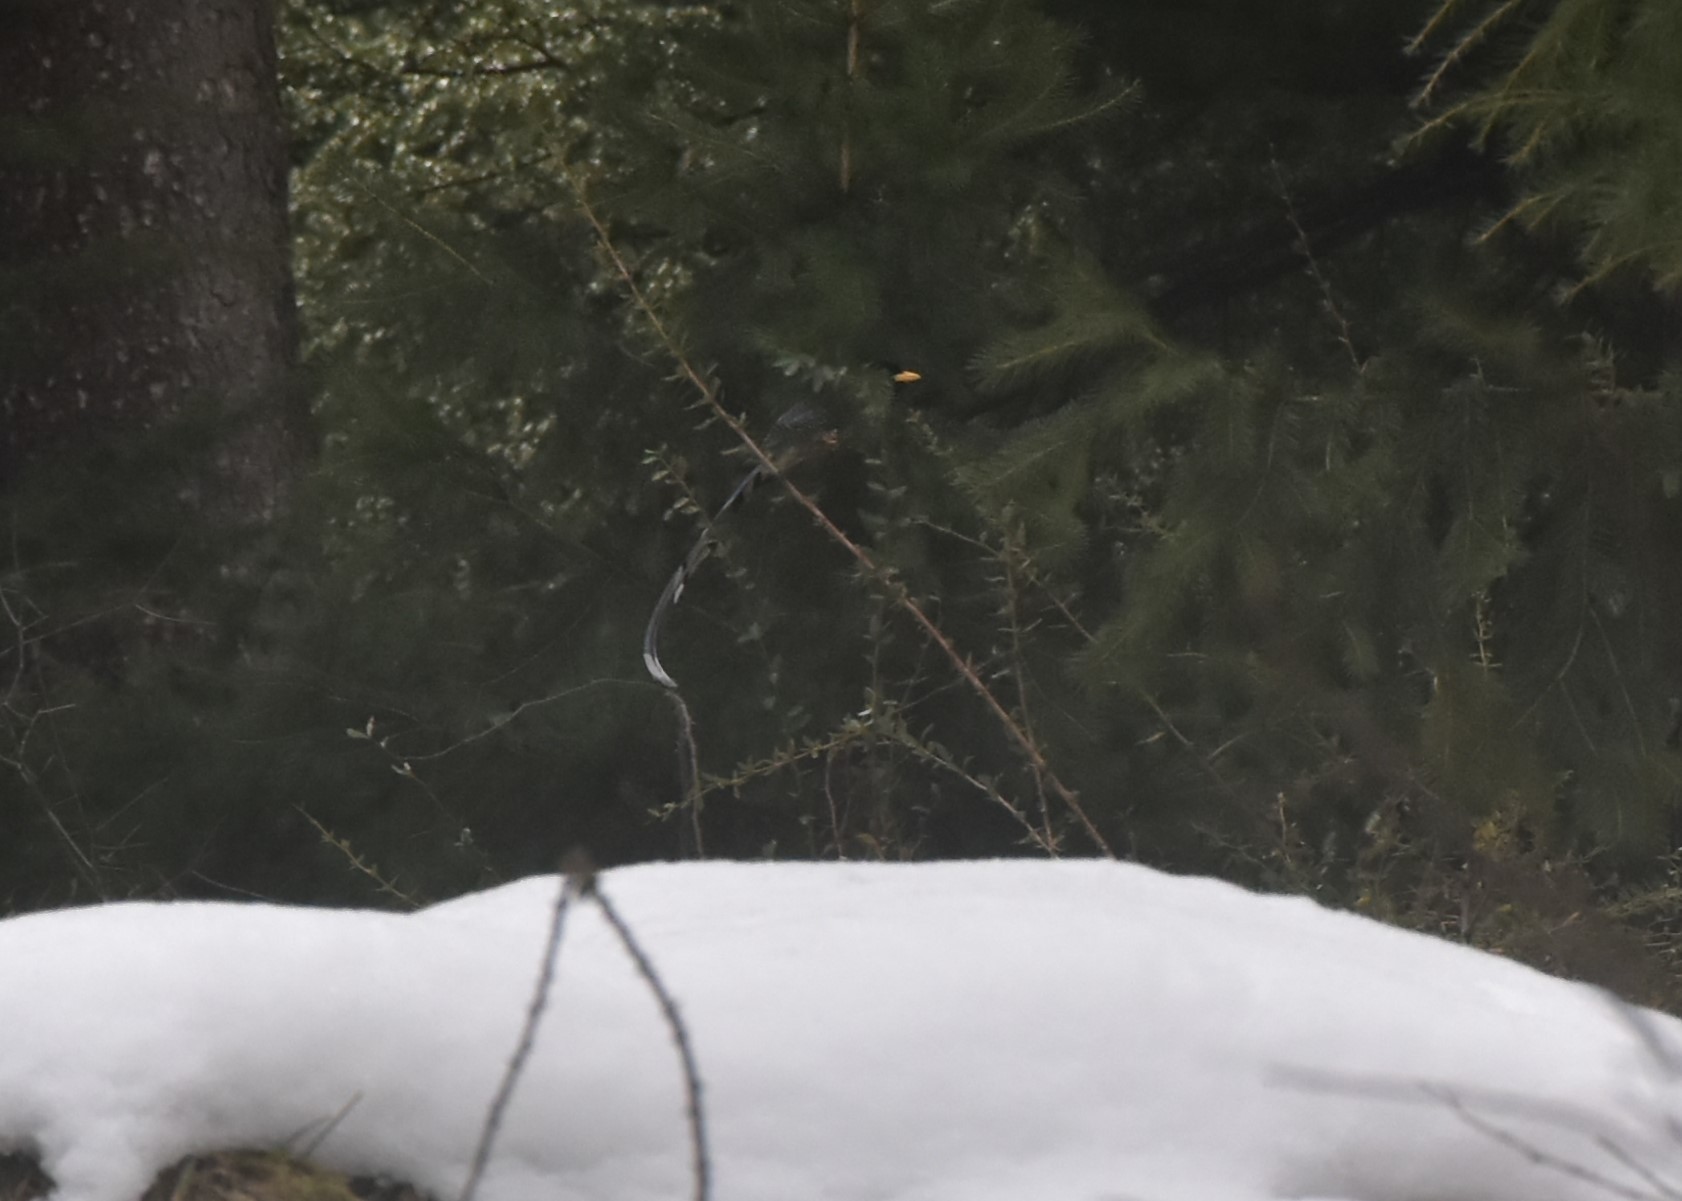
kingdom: Animalia
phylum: Chordata
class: Aves
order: Passeriformes
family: Corvidae
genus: Urocissa
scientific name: Urocissa flavirostris
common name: Yellow-billed blue magpie
